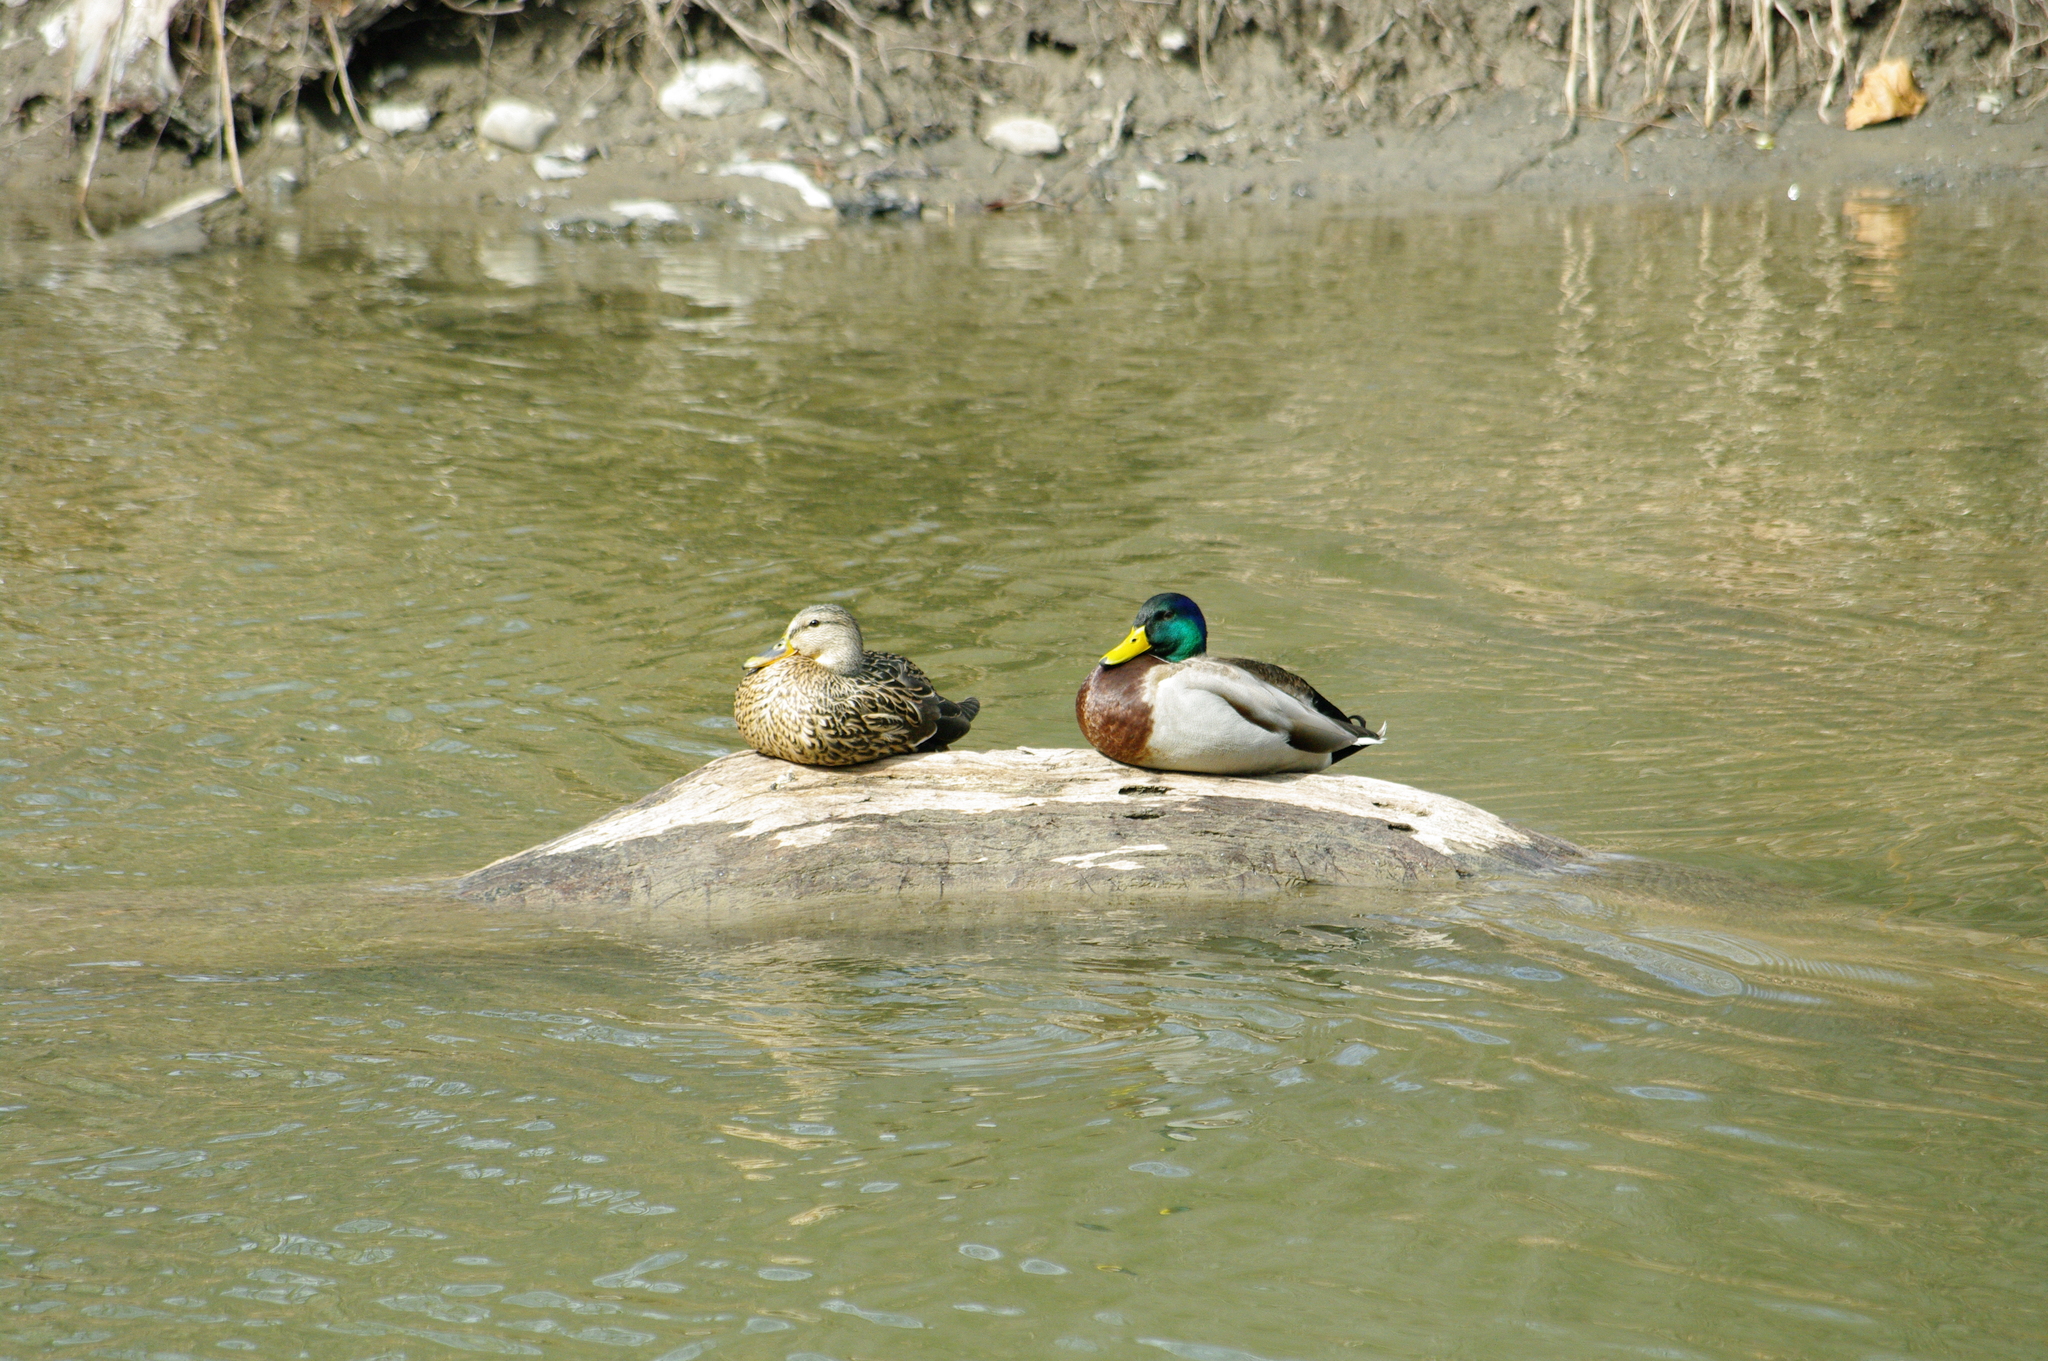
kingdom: Animalia
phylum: Chordata
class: Aves
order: Anseriformes
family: Anatidae
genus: Anas
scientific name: Anas platyrhynchos
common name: Mallard
